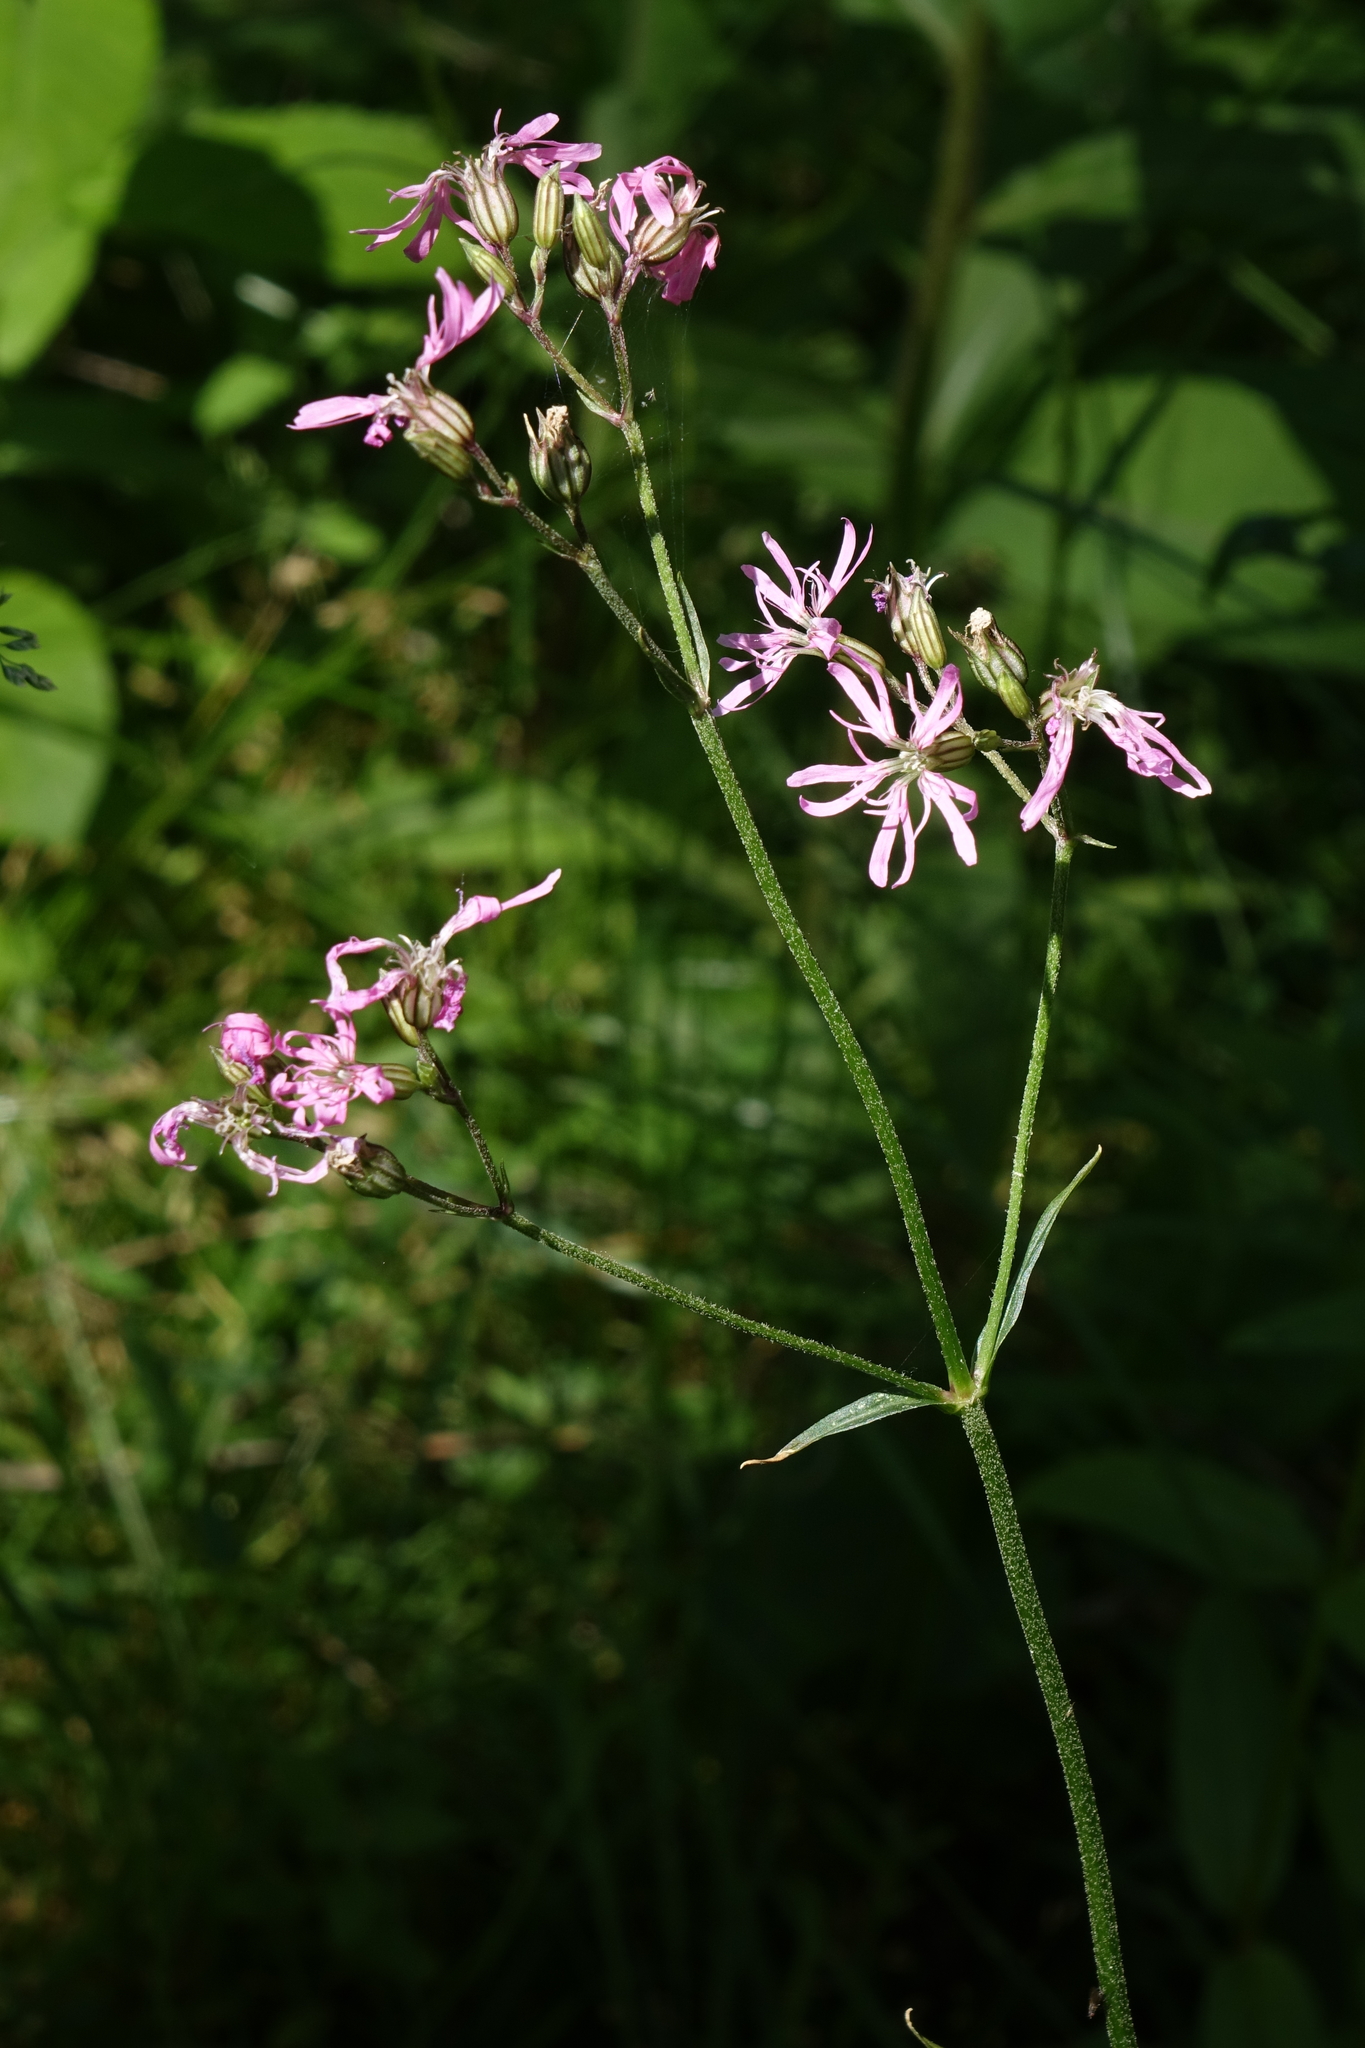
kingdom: Plantae
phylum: Tracheophyta
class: Magnoliopsida
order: Caryophyllales
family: Caryophyllaceae
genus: Silene
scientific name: Silene flos-cuculi
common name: Ragged-robin
